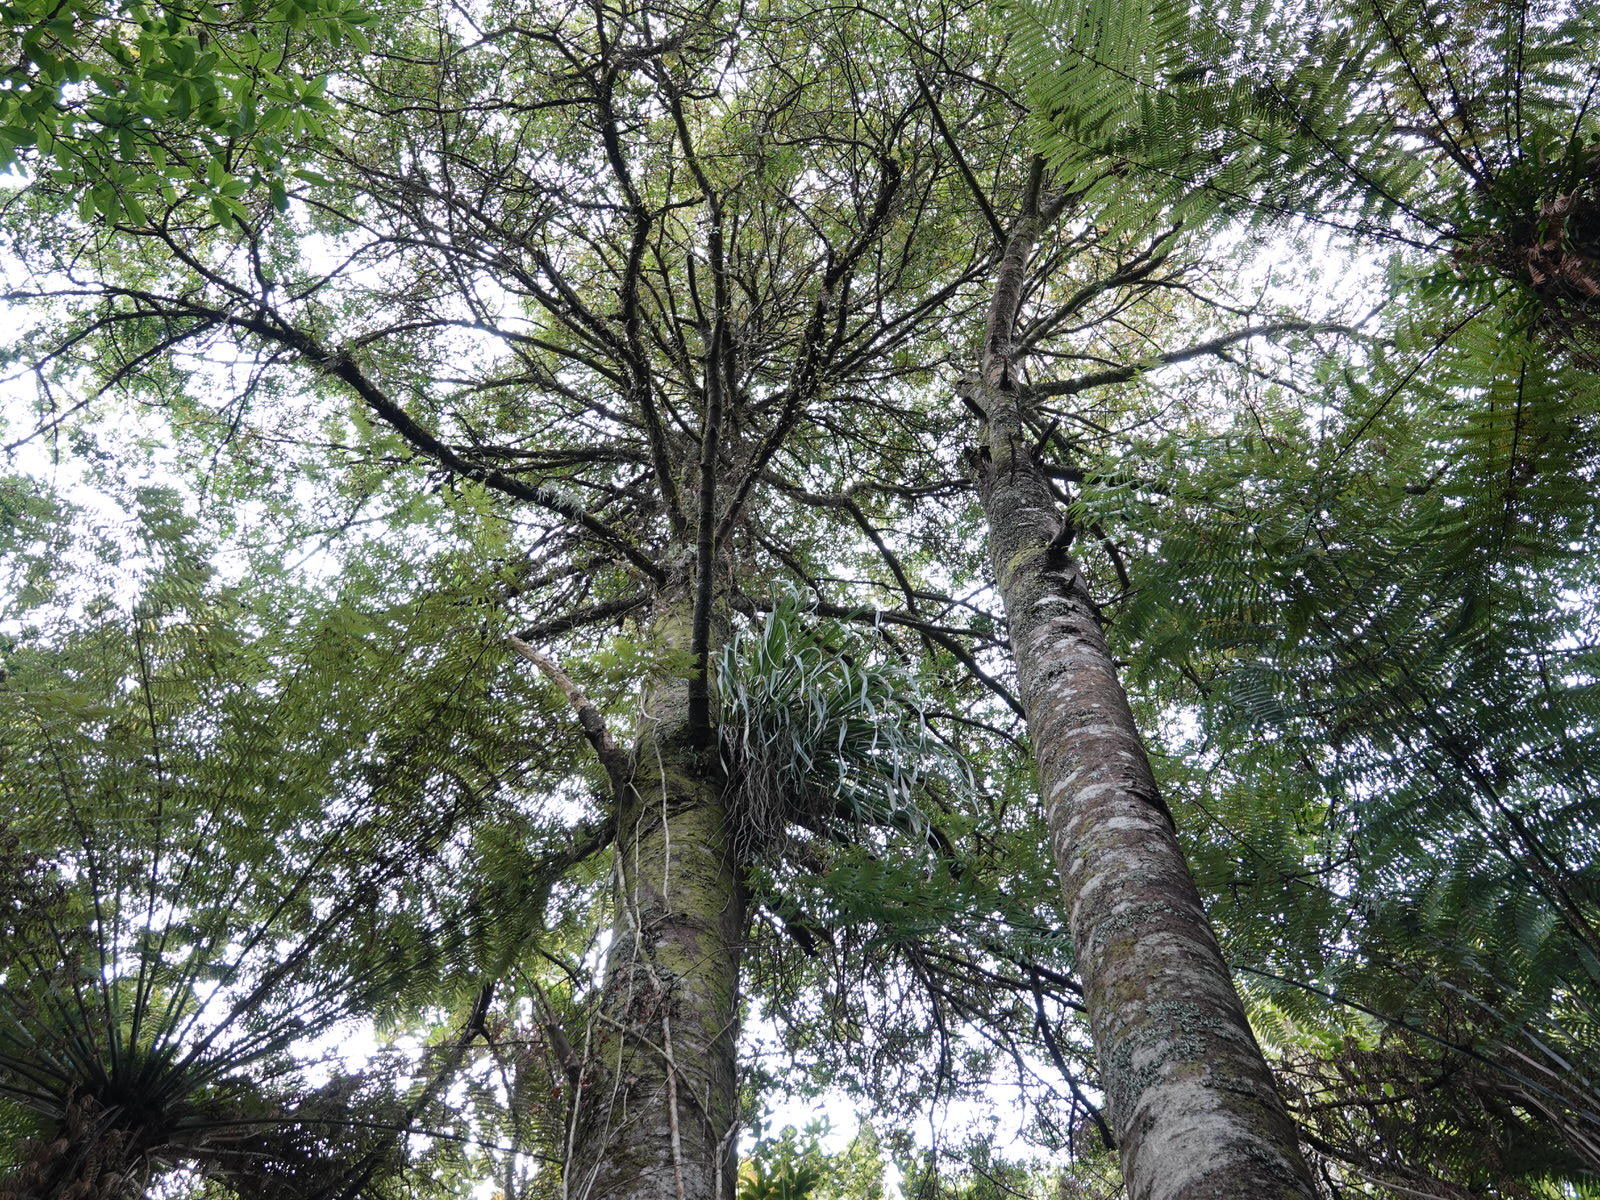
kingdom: Plantae
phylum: Tracheophyta
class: Pinopsida
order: Pinales
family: Phyllocladaceae
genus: Phyllocladus
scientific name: Phyllocladus trichomanoides
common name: Celery pine
